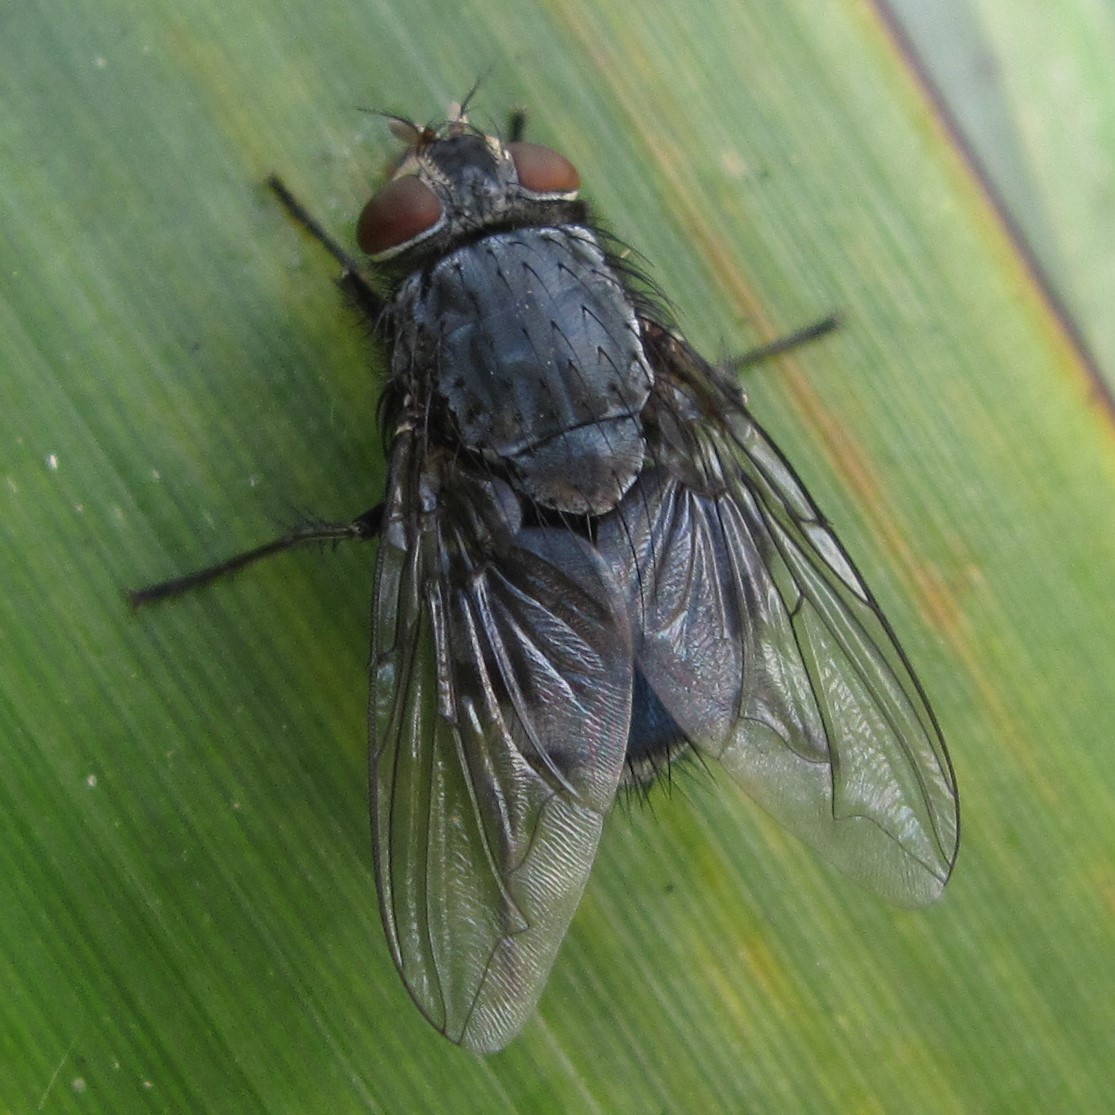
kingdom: Animalia
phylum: Arthropoda
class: Insecta
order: Diptera
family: Calliphoridae
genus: Calliphora
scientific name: Calliphora vicina
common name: Common blow flie
